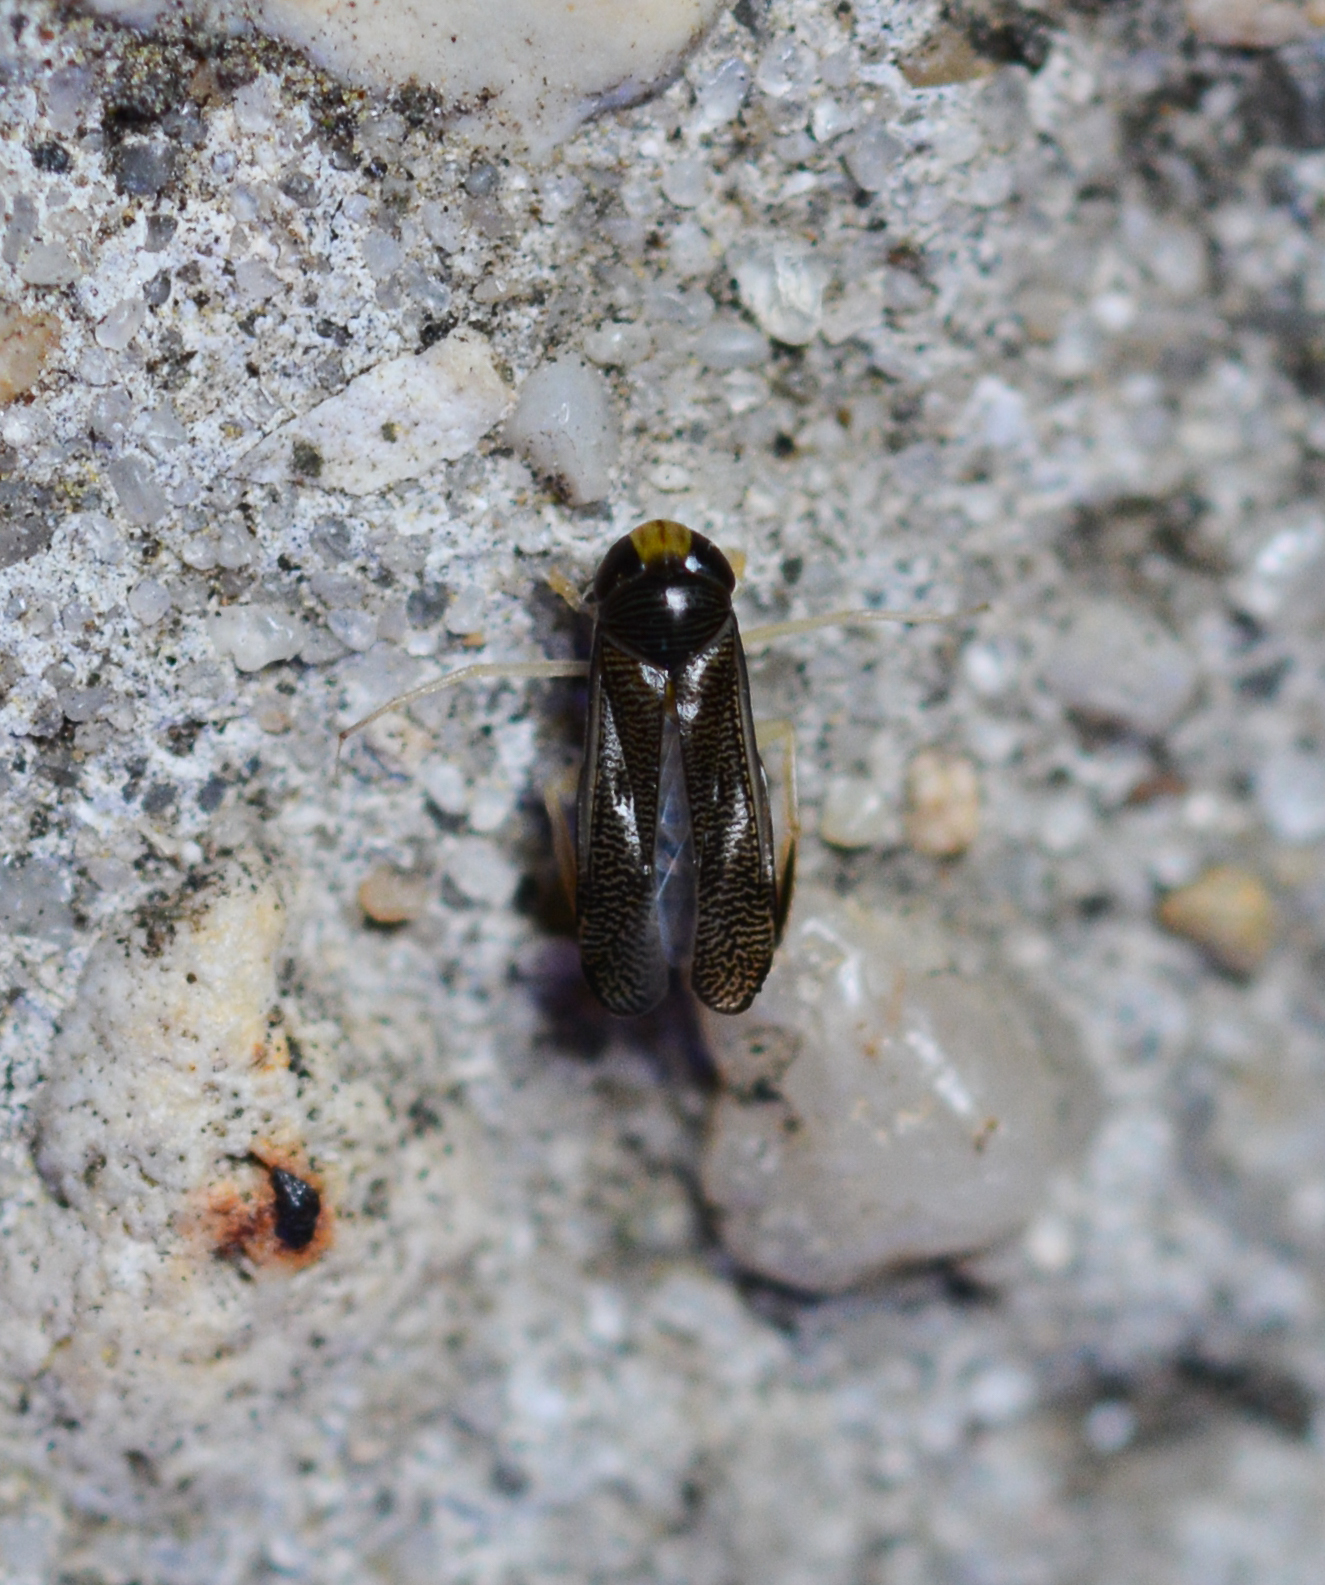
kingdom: Animalia
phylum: Arthropoda
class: Insecta
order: Hemiptera
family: Corixidae
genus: Trichocorixa
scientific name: Trichocorixa
